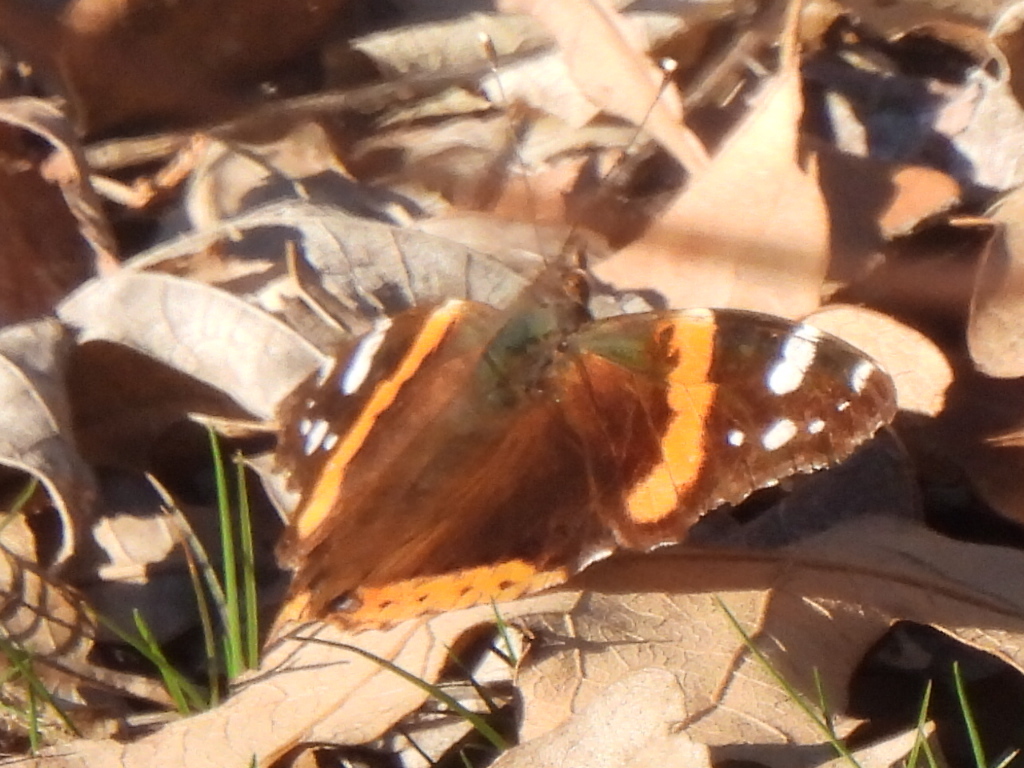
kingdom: Animalia
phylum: Arthropoda
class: Insecta
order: Lepidoptera
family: Nymphalidae
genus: Vanessa
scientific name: Vanessa atalanta
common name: Red admiral
